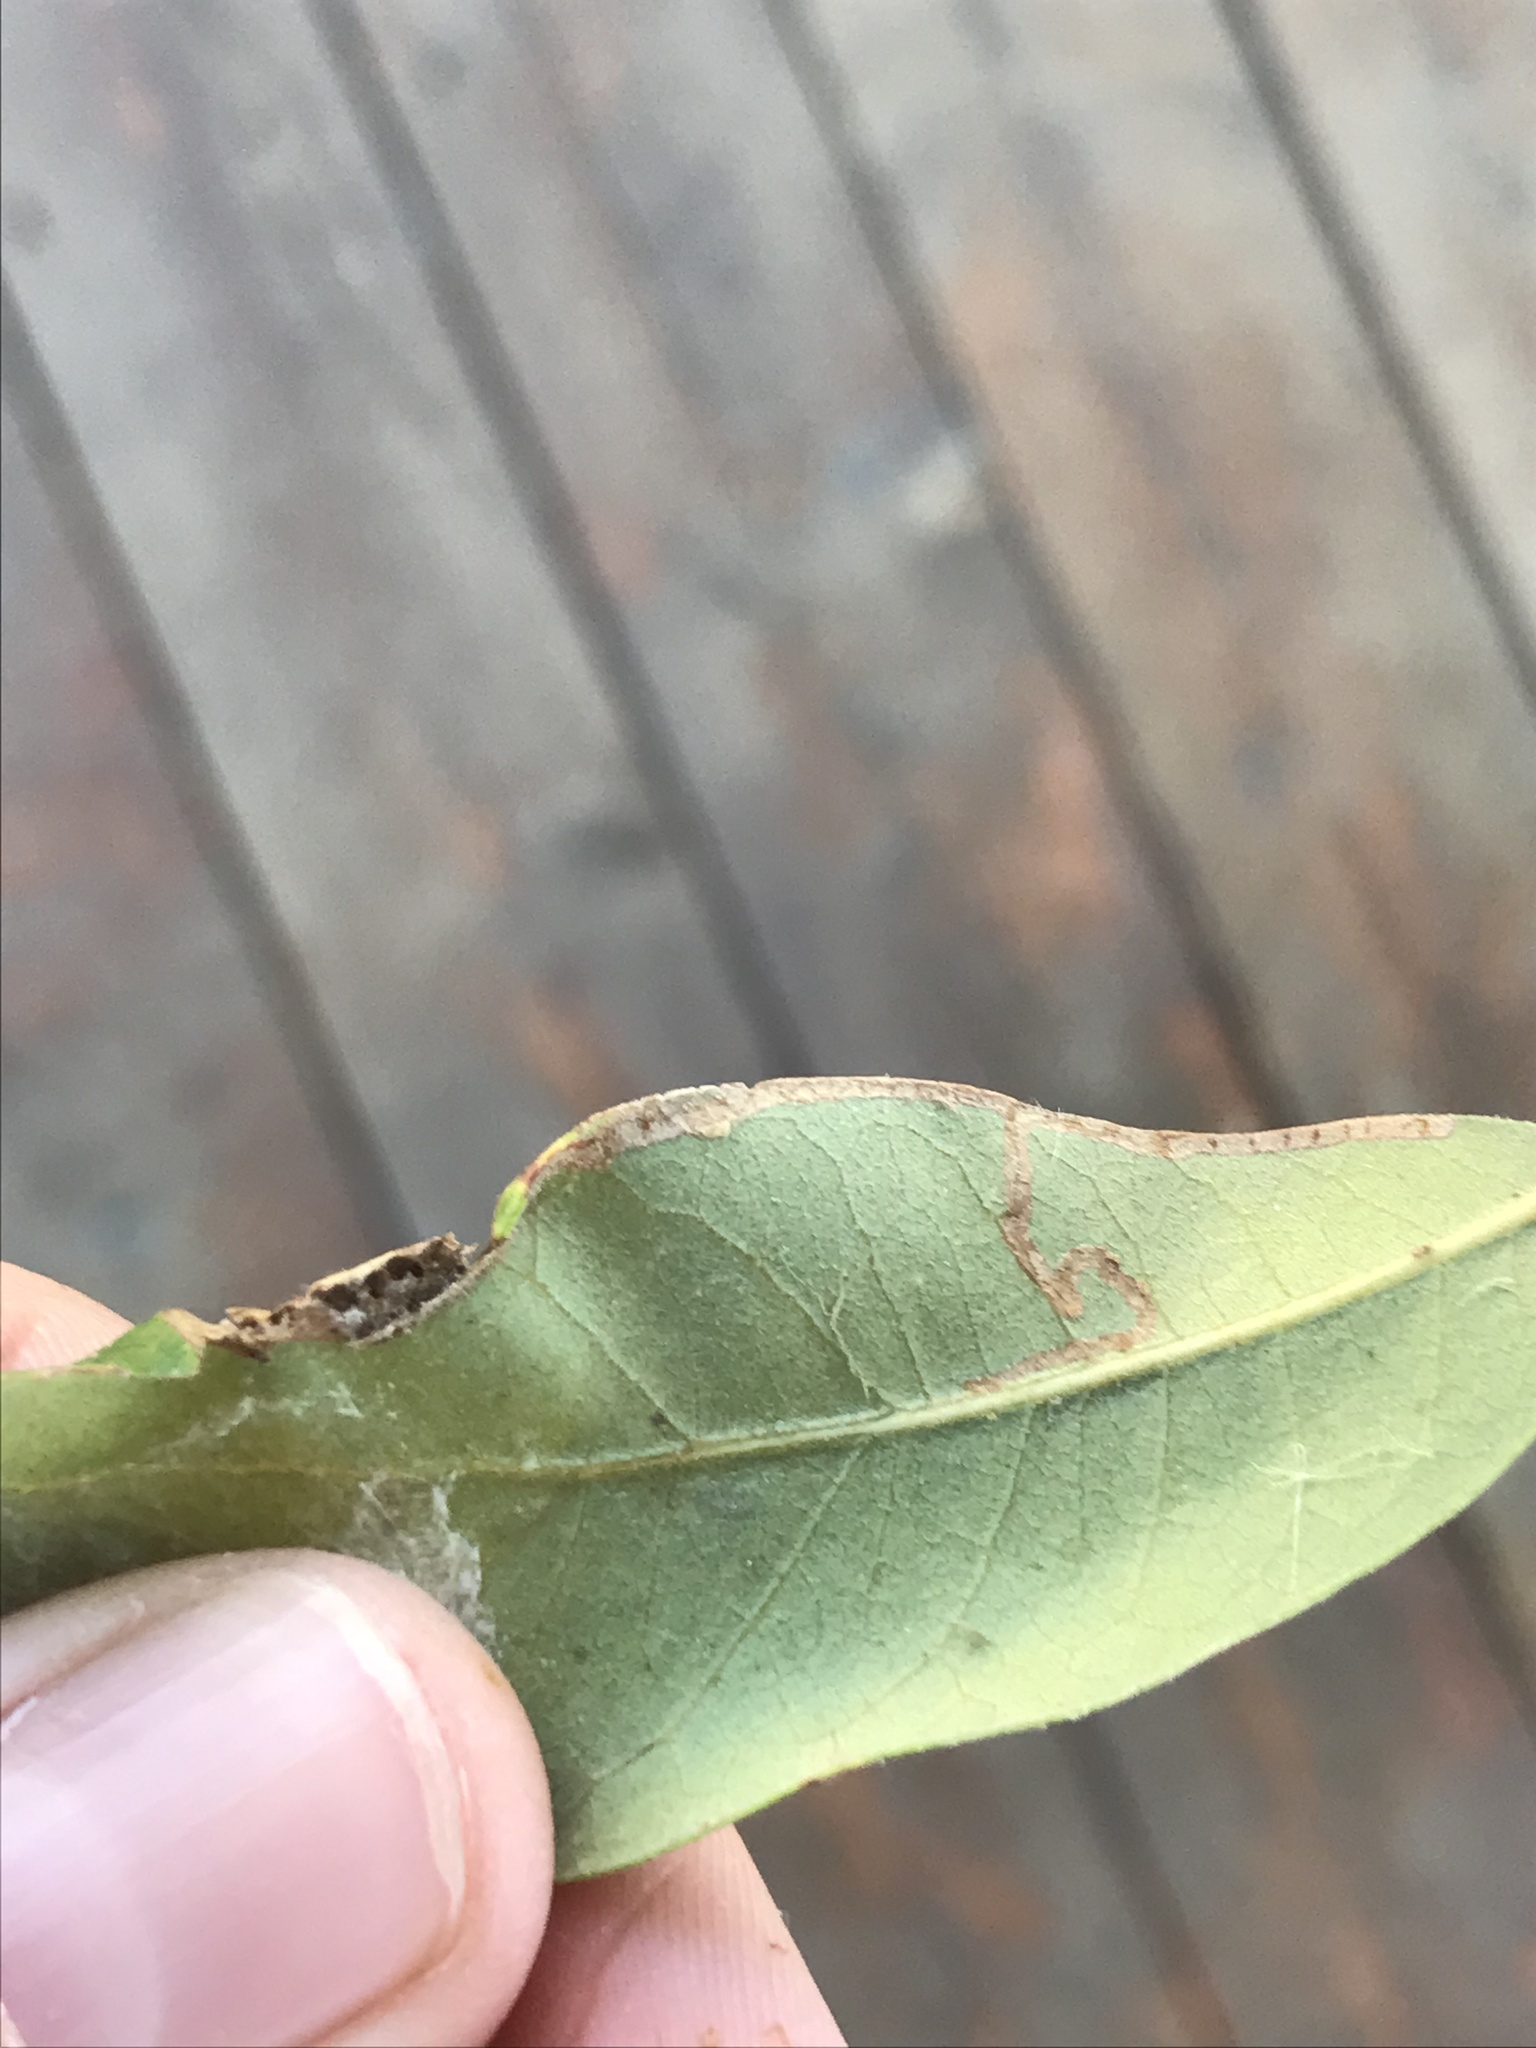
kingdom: Animalia
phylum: Arthropoda
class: Insecta
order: Lepidoptera
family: Gracillariidae
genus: Povolnya
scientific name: Povolnya quercinigrella
